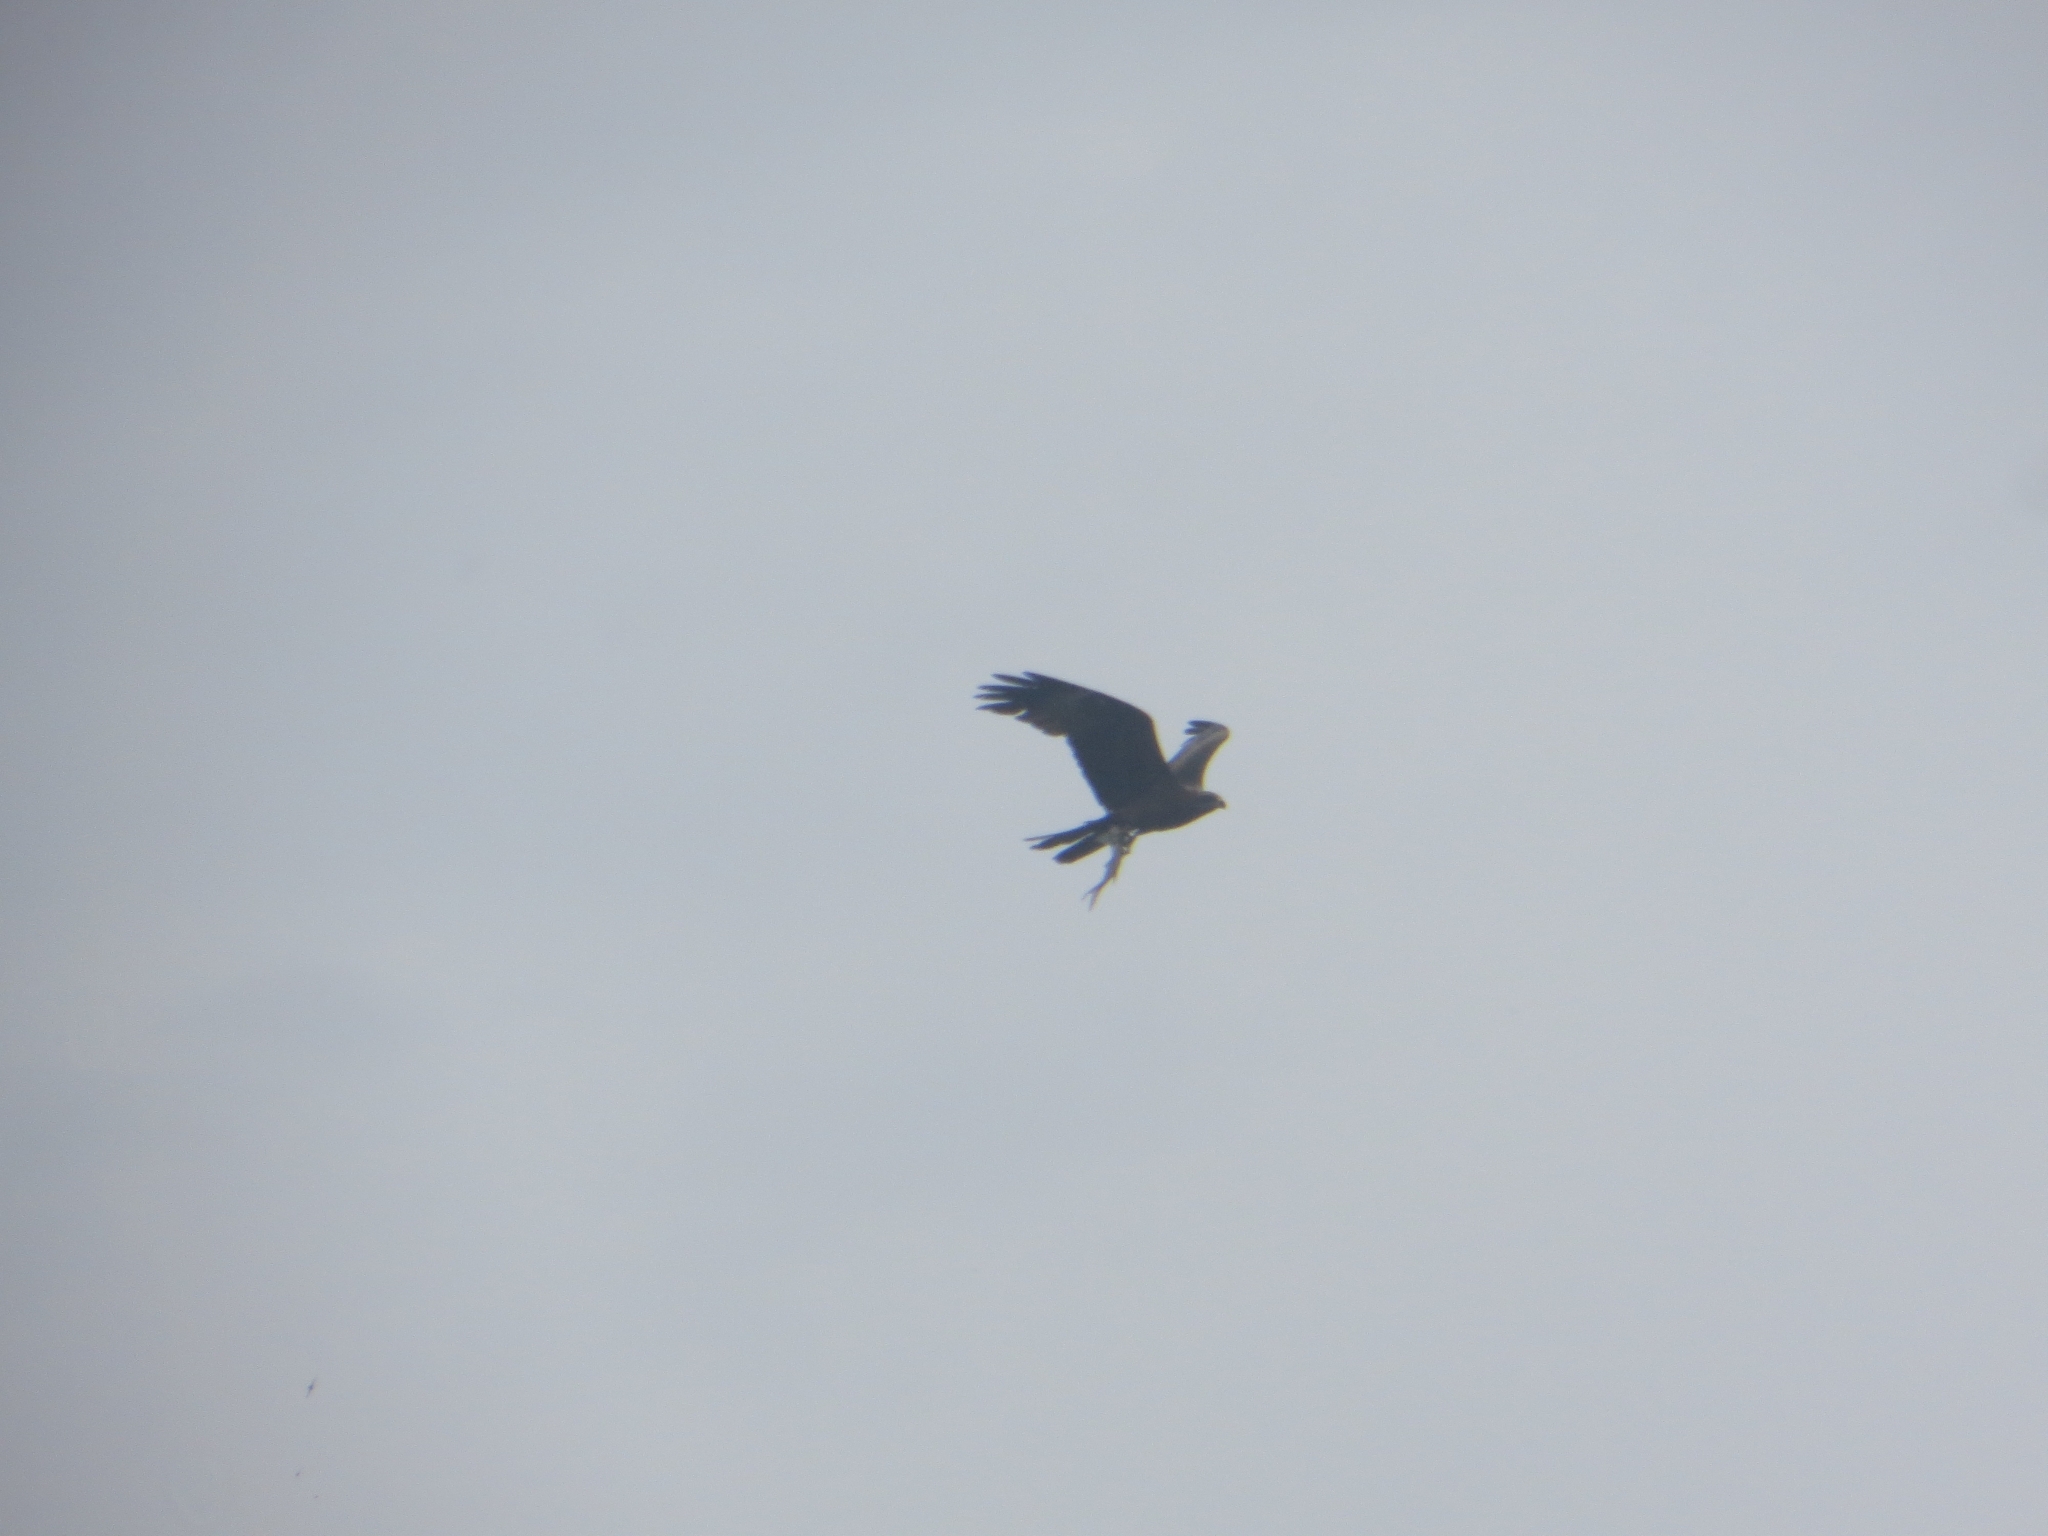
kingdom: Animalia
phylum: Chordata
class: Aves
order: Accipitriformes
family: Accipitridae
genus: Milvus
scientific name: Milvus migrans
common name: Black kite
